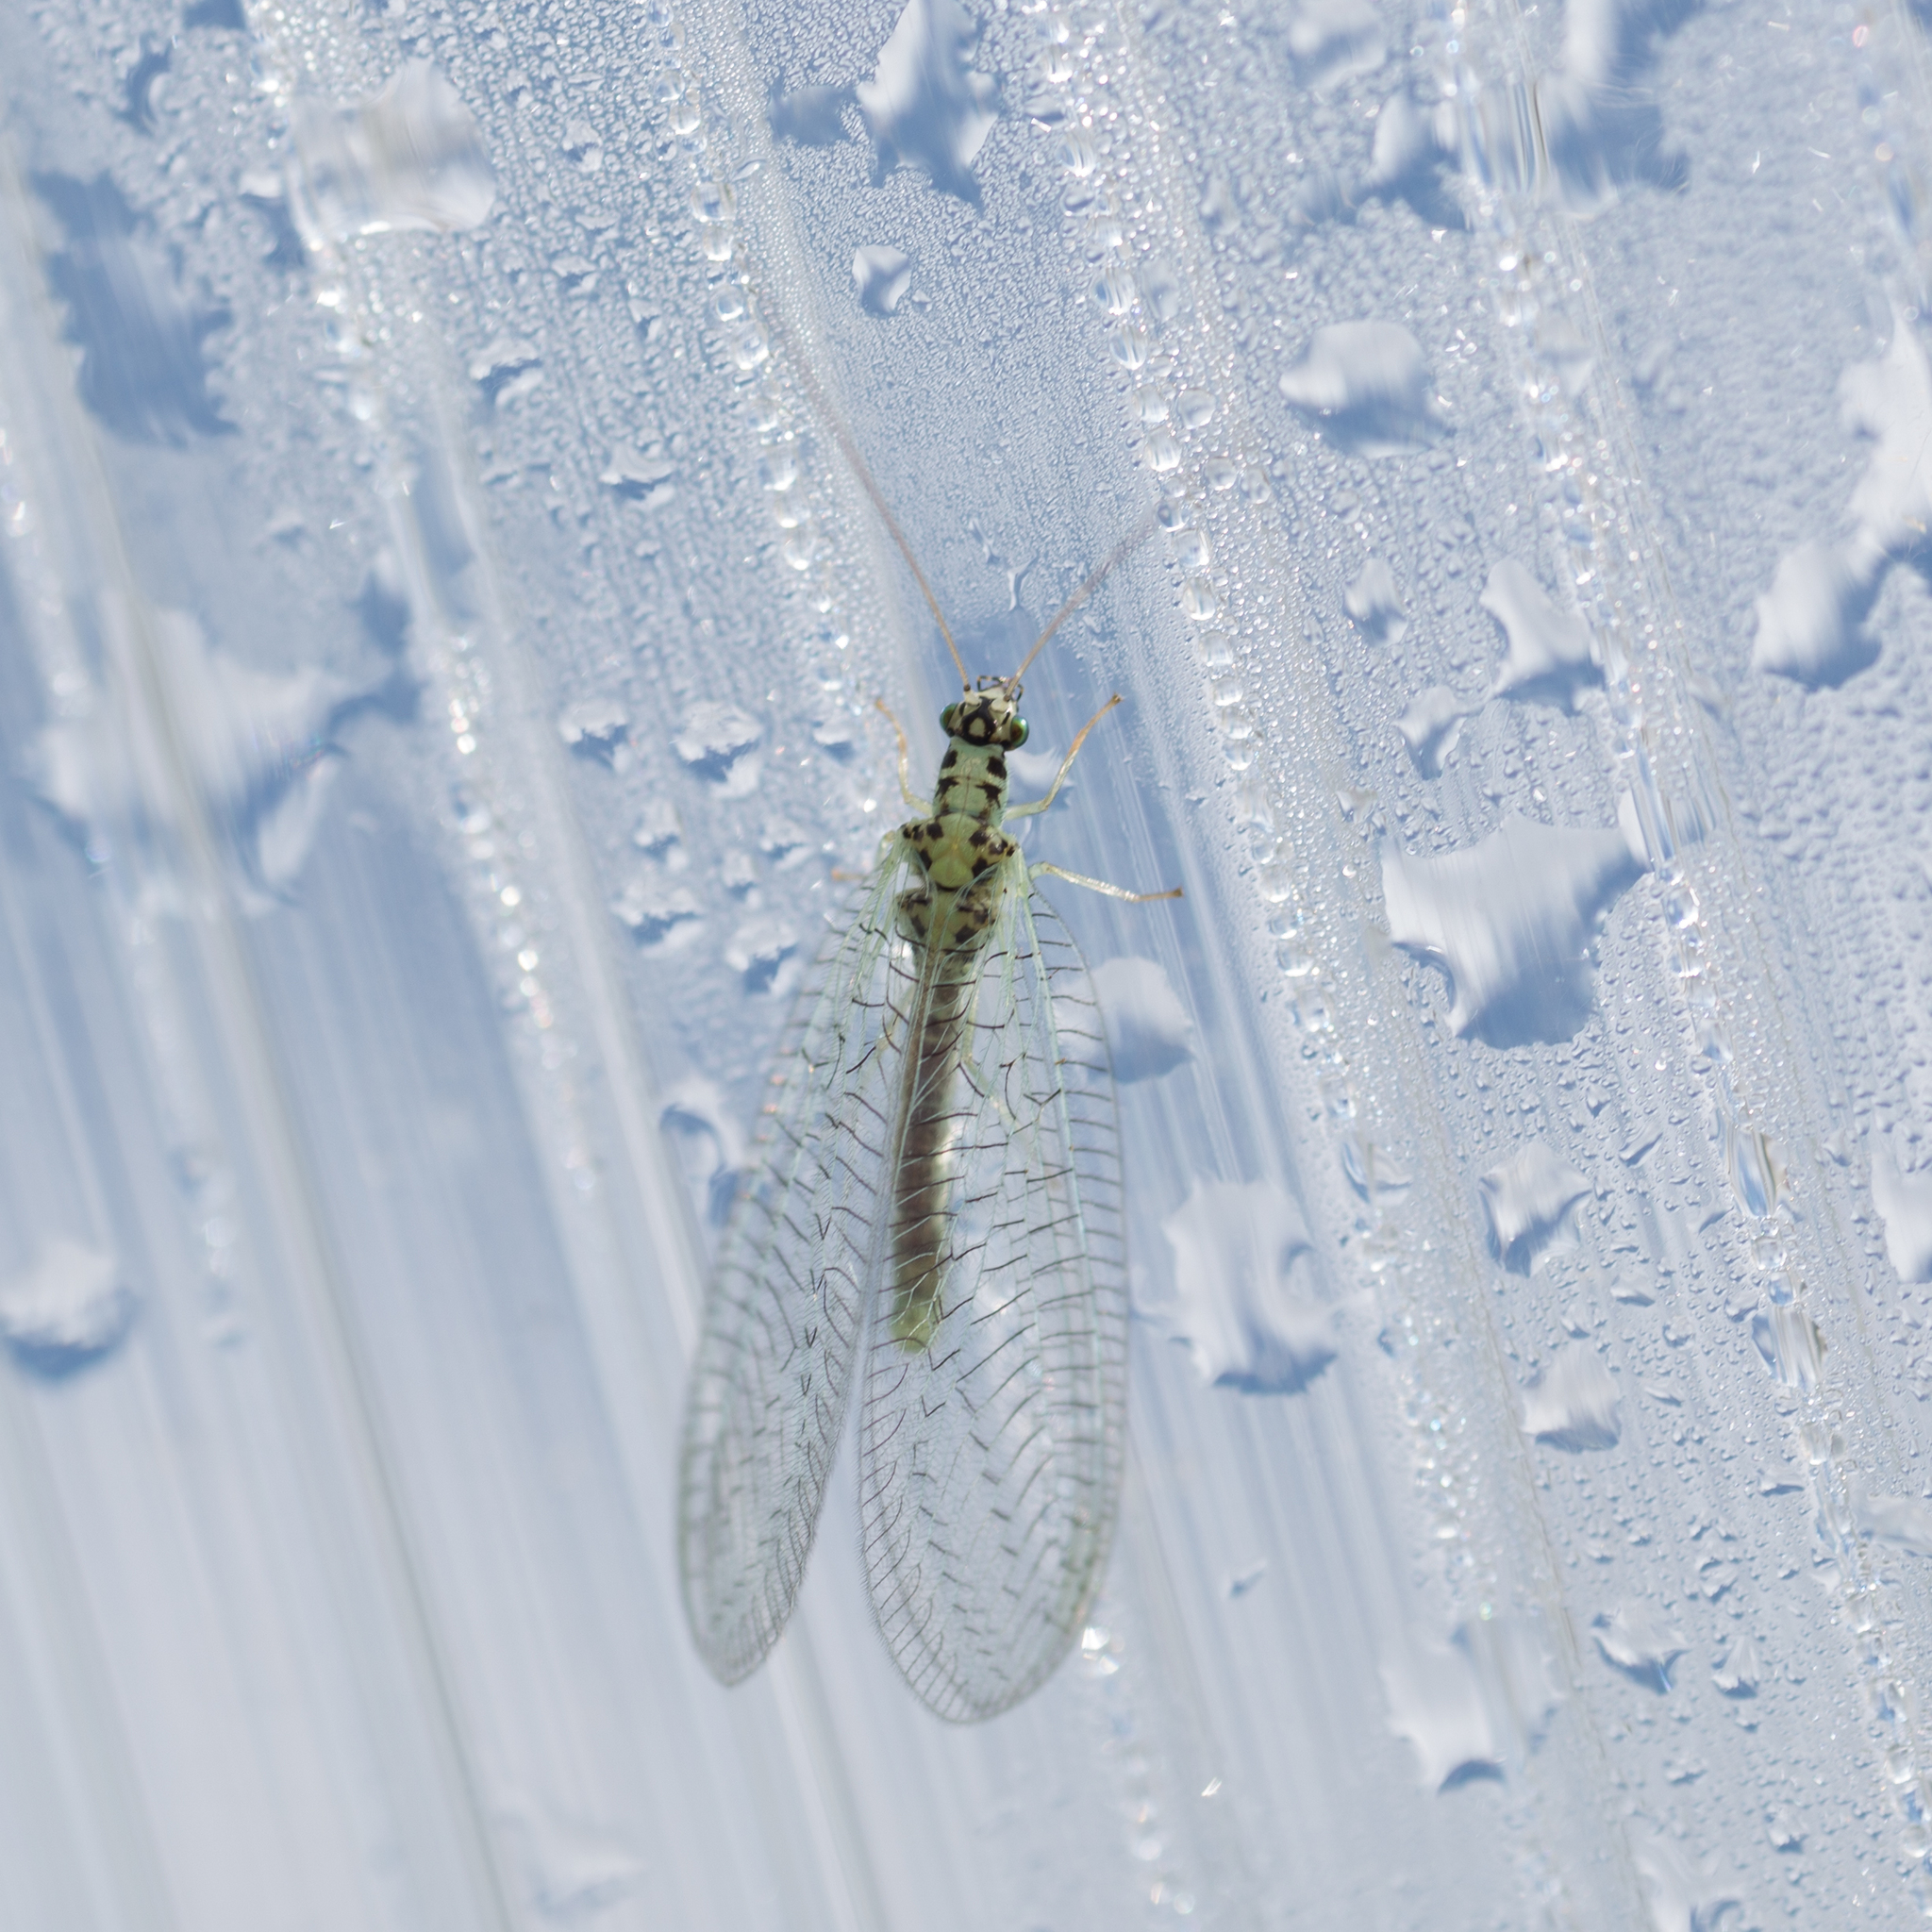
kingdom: Animalia
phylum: Arthropoda
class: Insecta
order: Neuroptera
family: Chrysopidae
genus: Chrysopa
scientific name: Chrysopa perla
